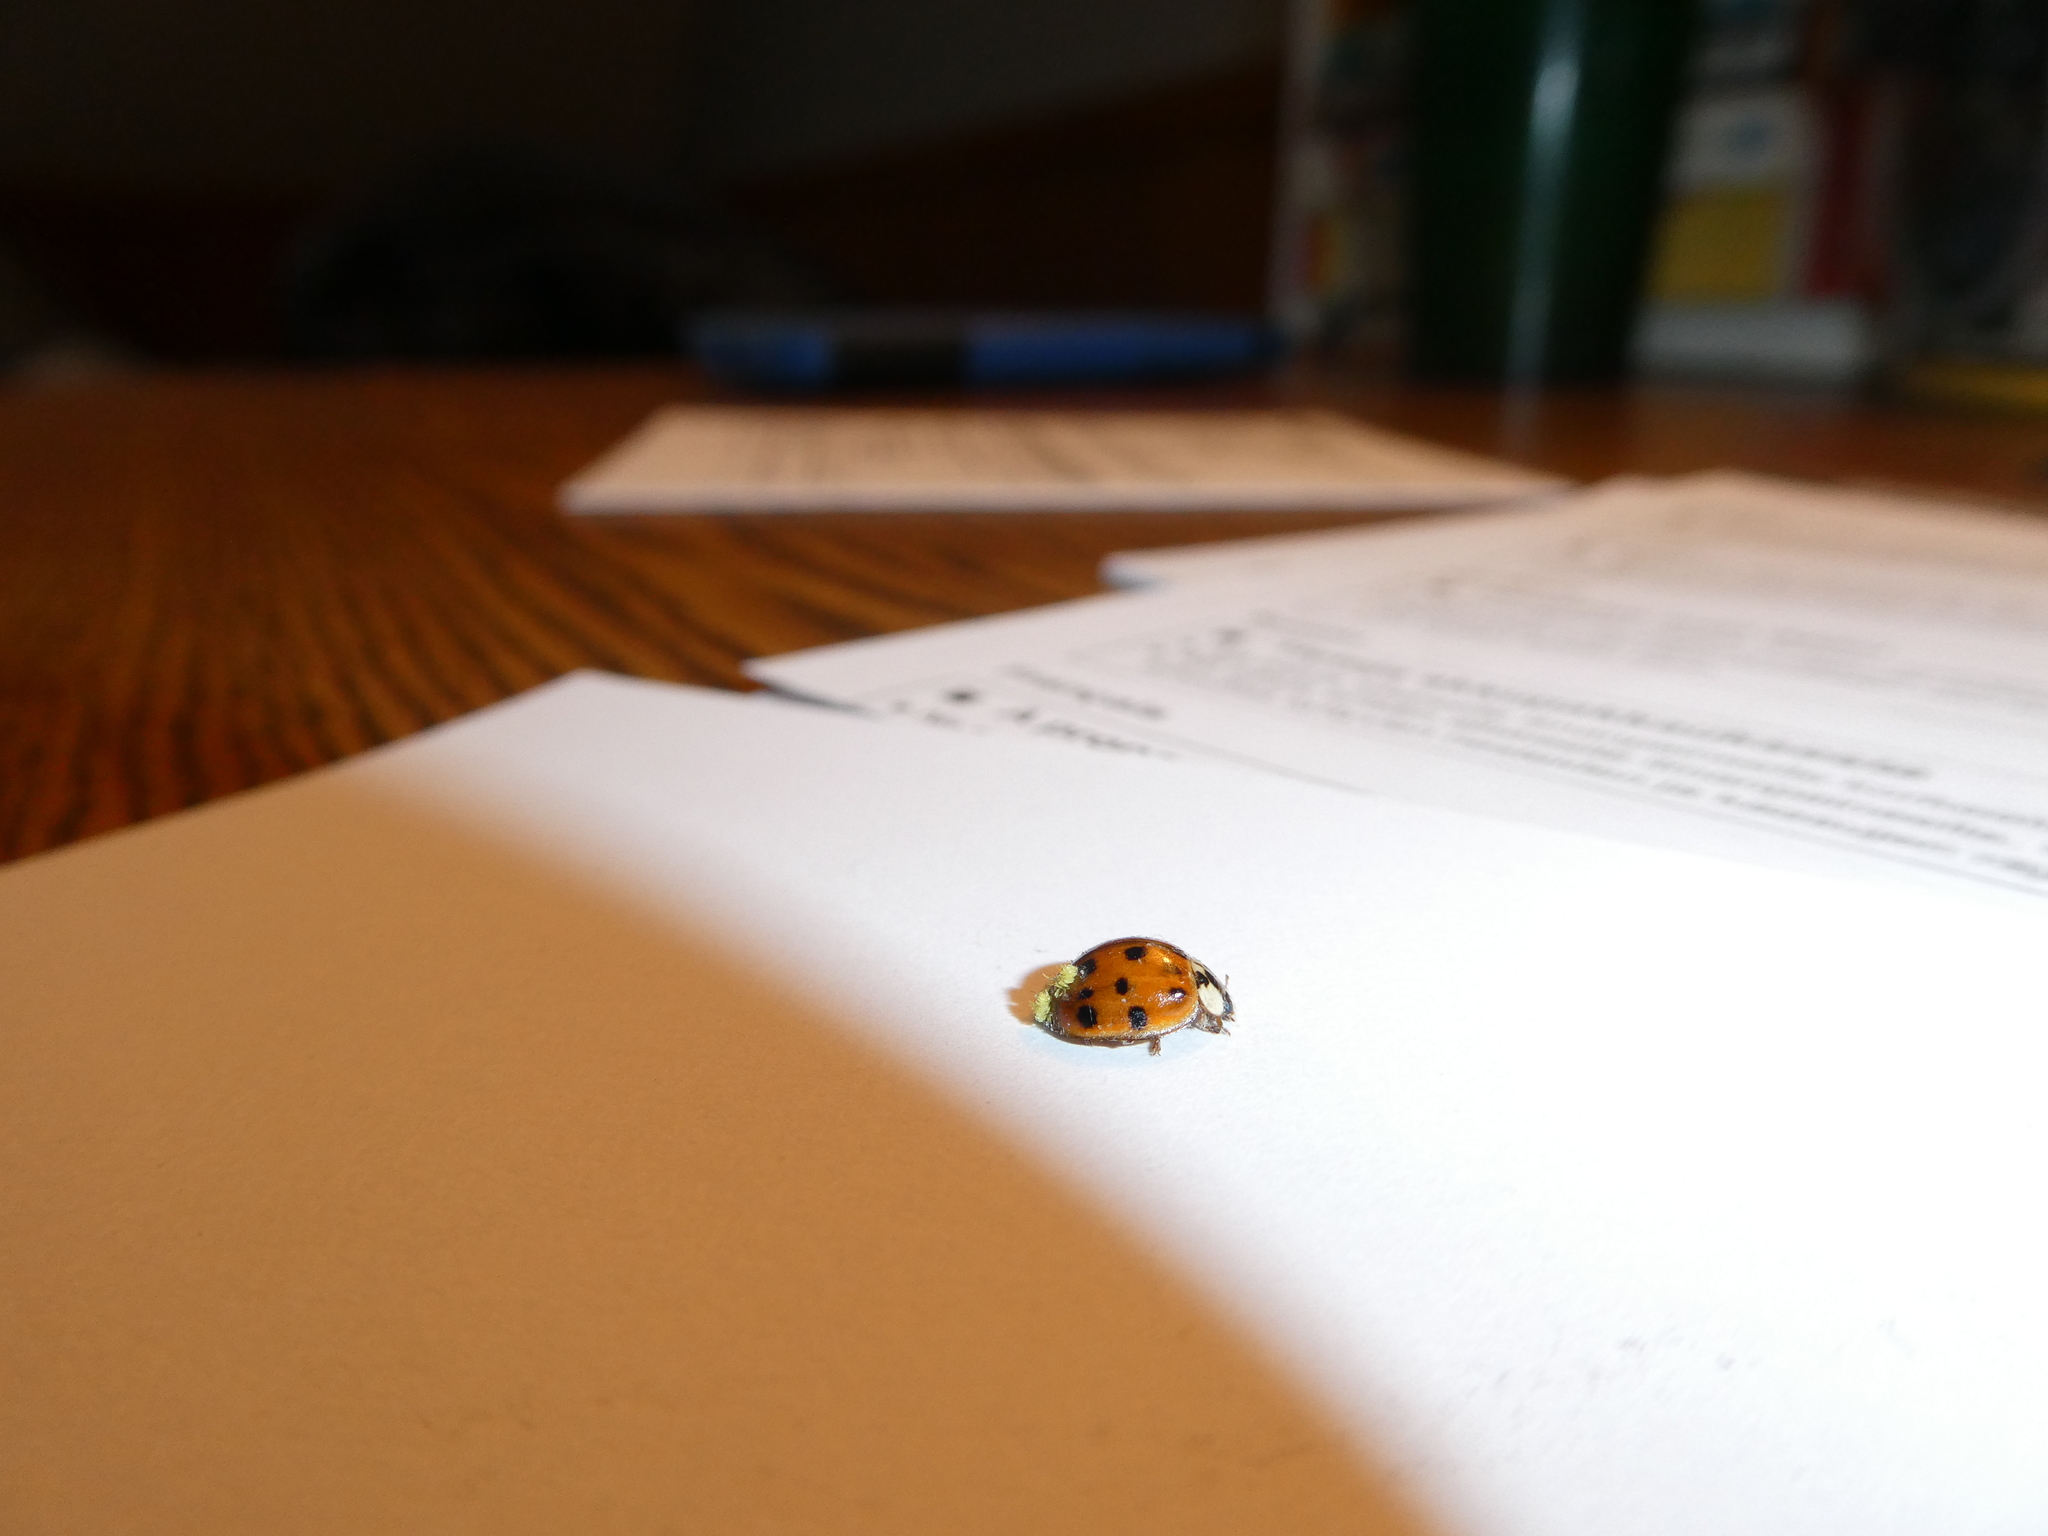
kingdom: Fungi
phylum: Ascomycota
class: Laboulbeniomycetes
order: Laboulbeniales
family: Laboulbeniaceae
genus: Hesperomyces
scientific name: Hesperomyces harmoniae
